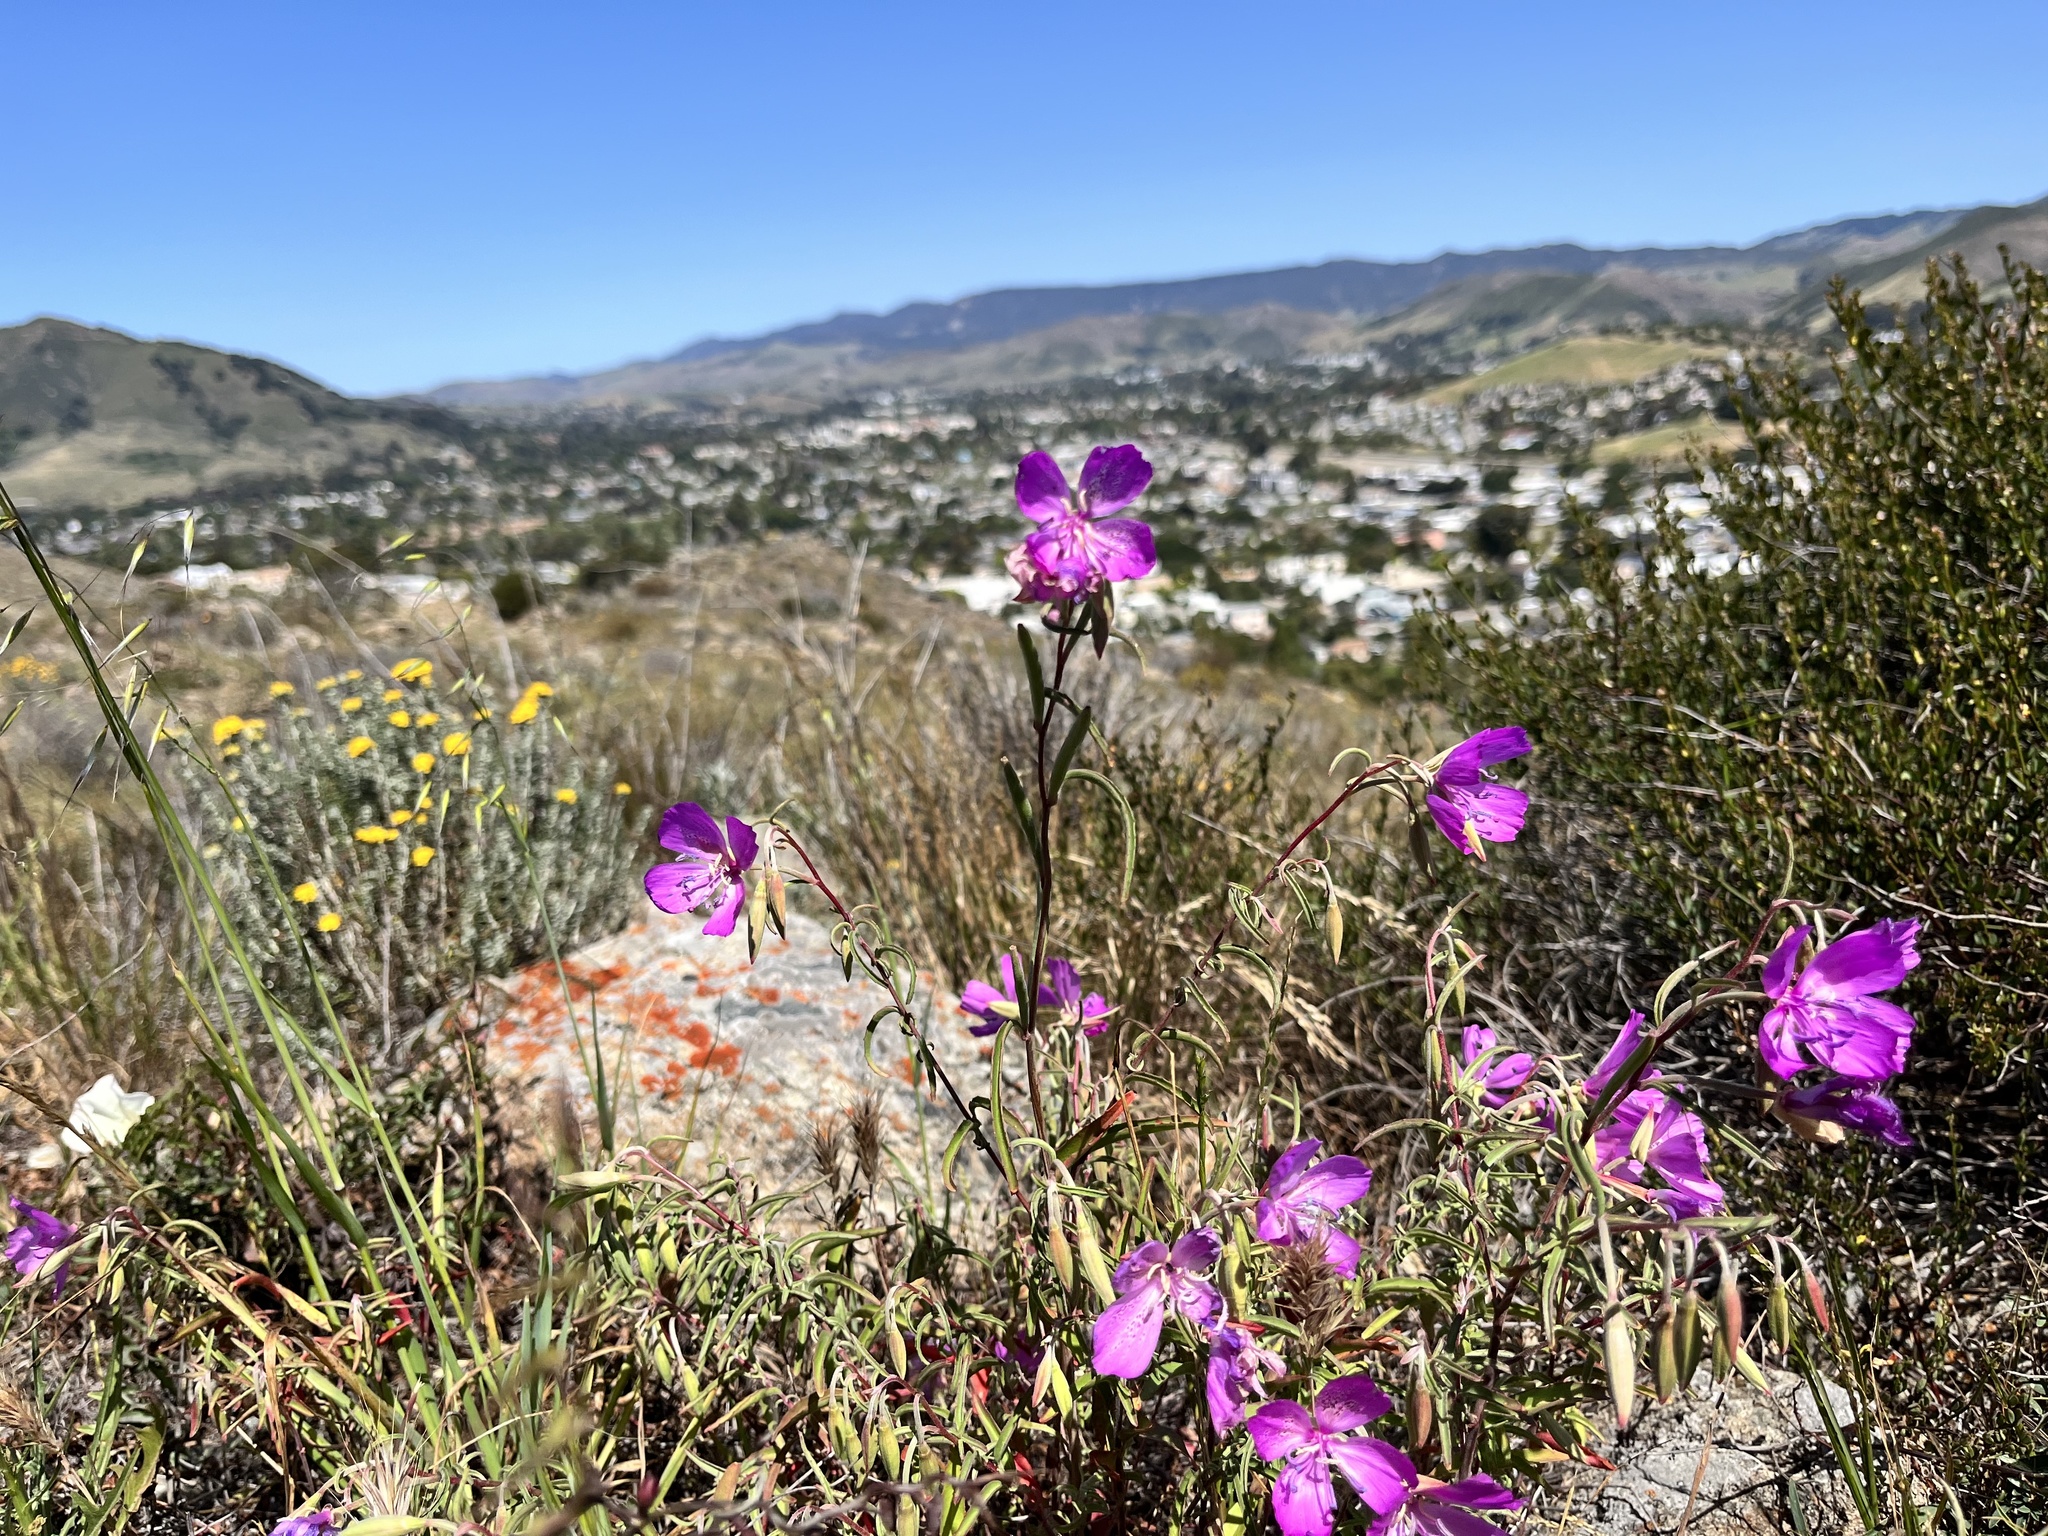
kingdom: Plantae
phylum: Tracheophyta
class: Magnoliopsida
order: Myrtales
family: Onagraceae
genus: Clarkia
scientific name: Clarkia bottae
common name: Punch-bowl godetia
